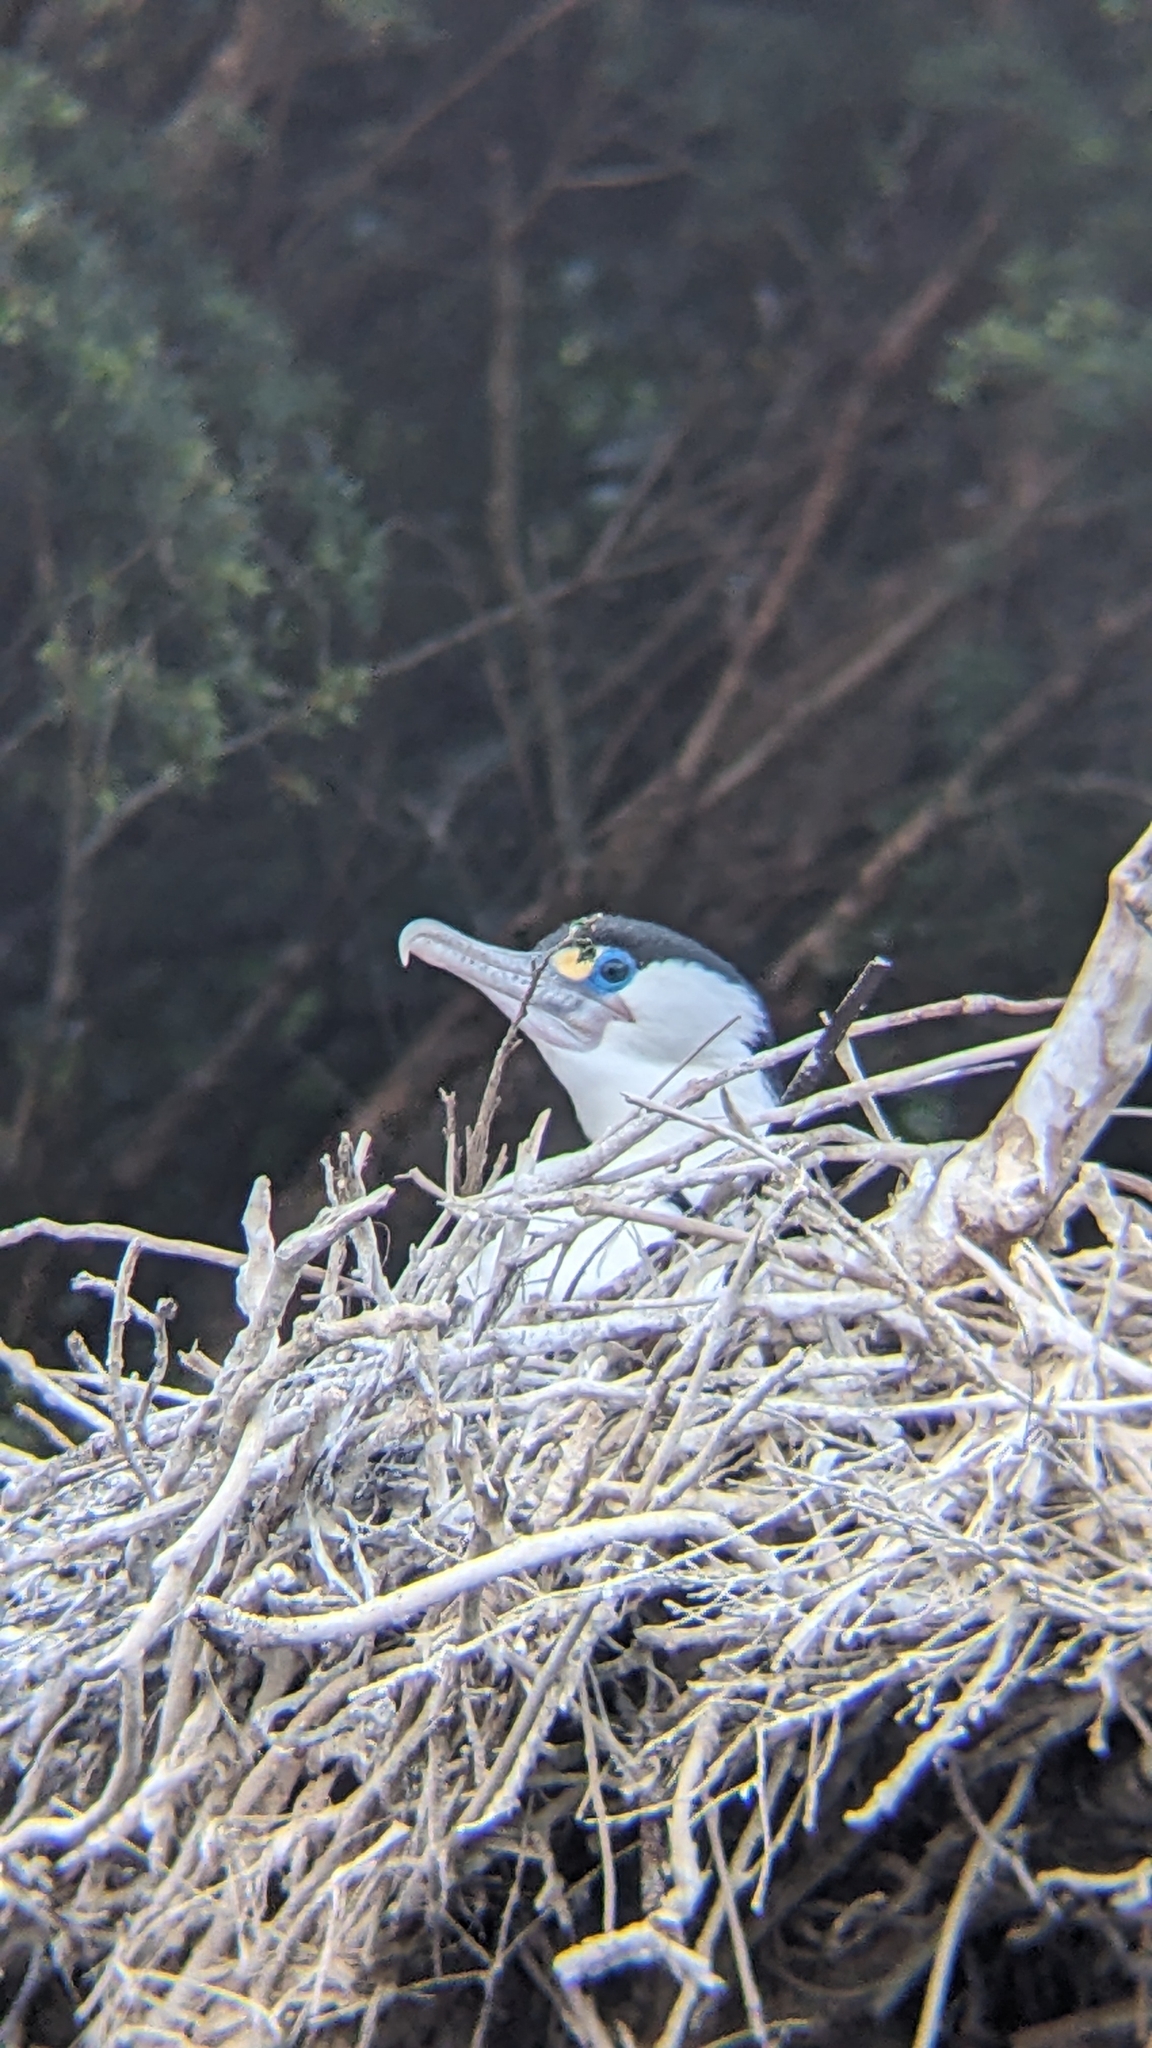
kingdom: Animalia
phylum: Chordata
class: Aves
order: Suliformes
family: Phalacrocoracidae
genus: Phalacrocorax
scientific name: Phalacrocorax varius
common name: Pied cormorant
